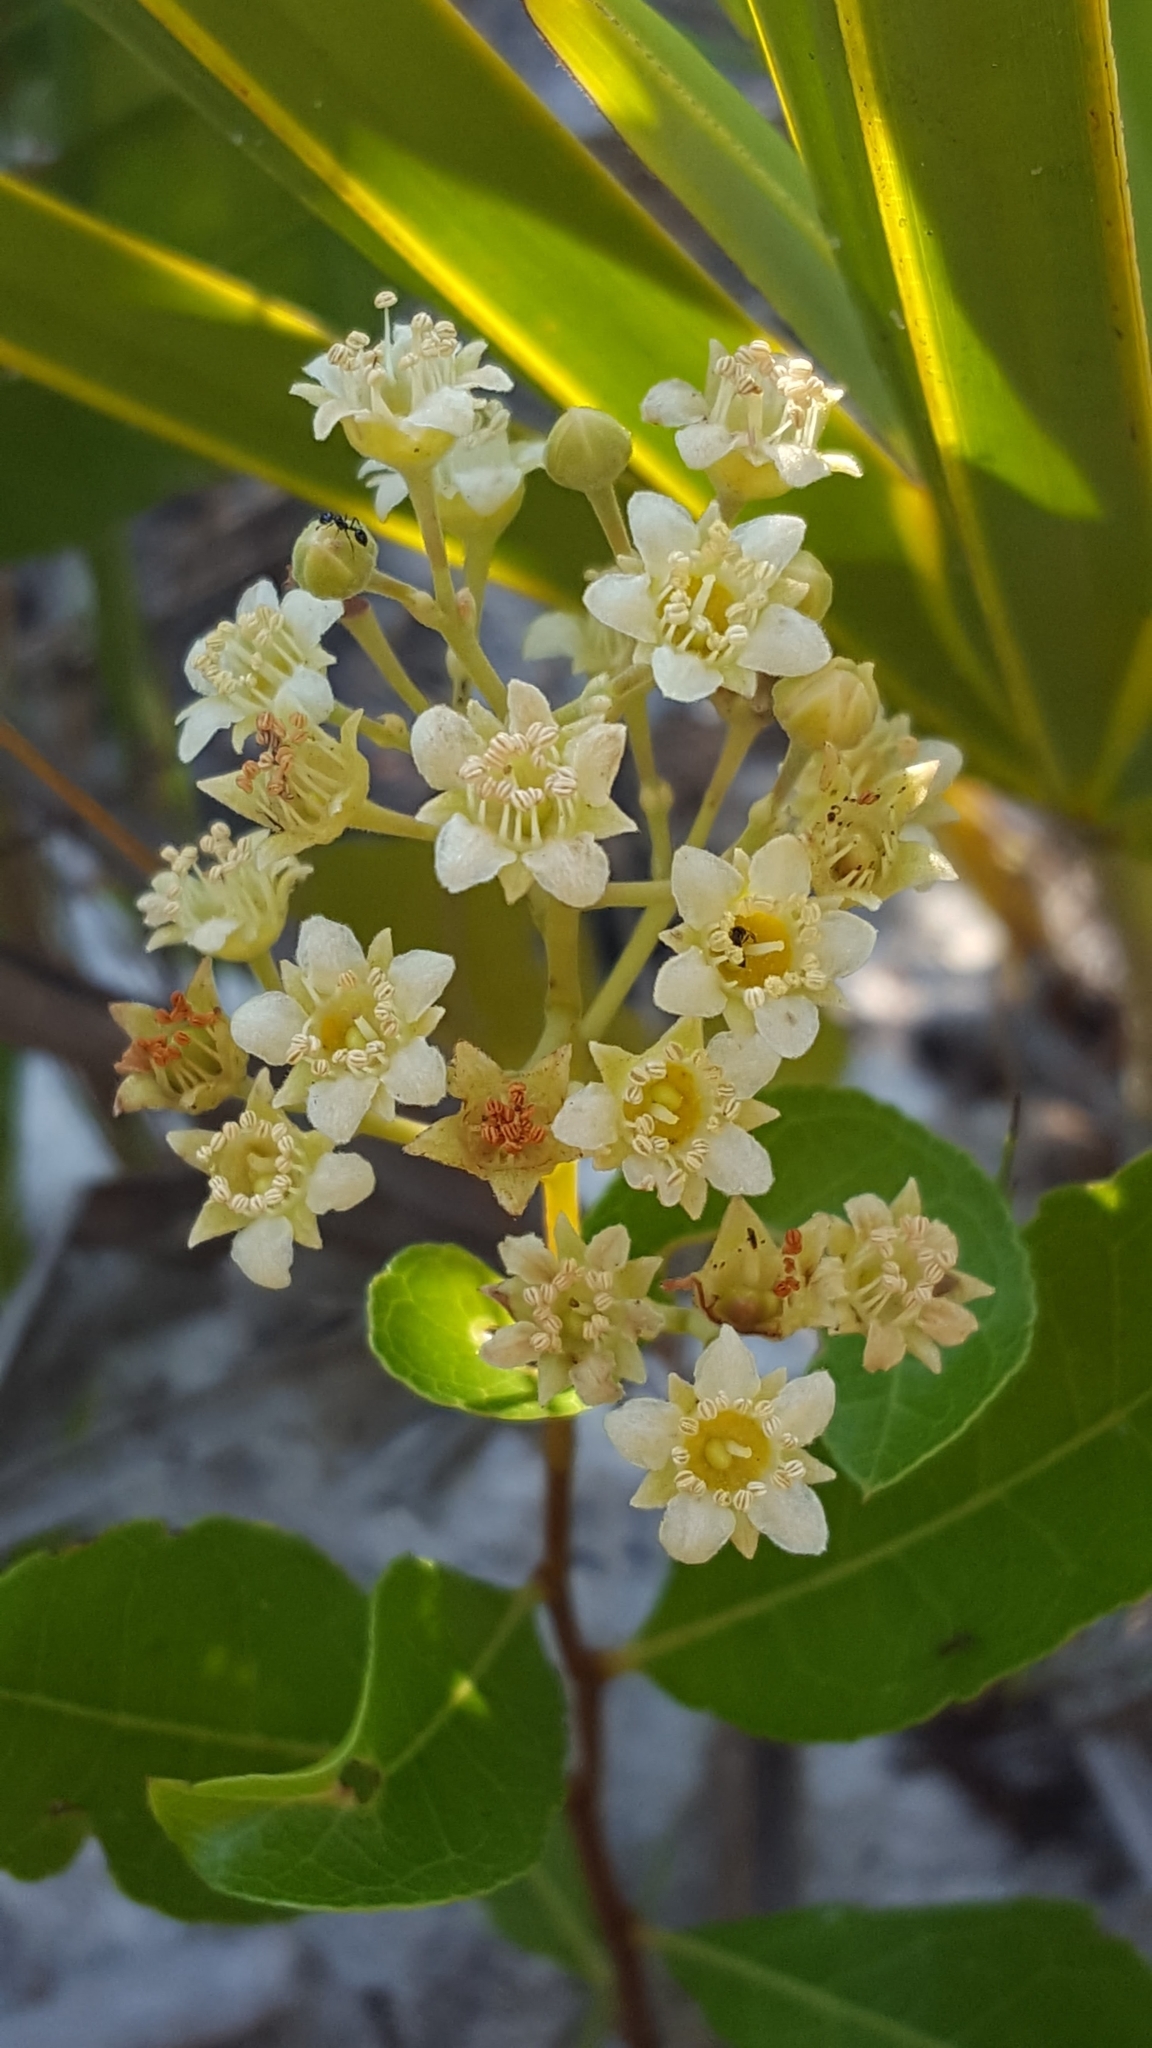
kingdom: Plantae
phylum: Tracheophyta
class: Magnoliopsida
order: Malpighiales
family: Chrysobalanaceae
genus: Geobalanus
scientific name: Geobalanus oblongifolius
